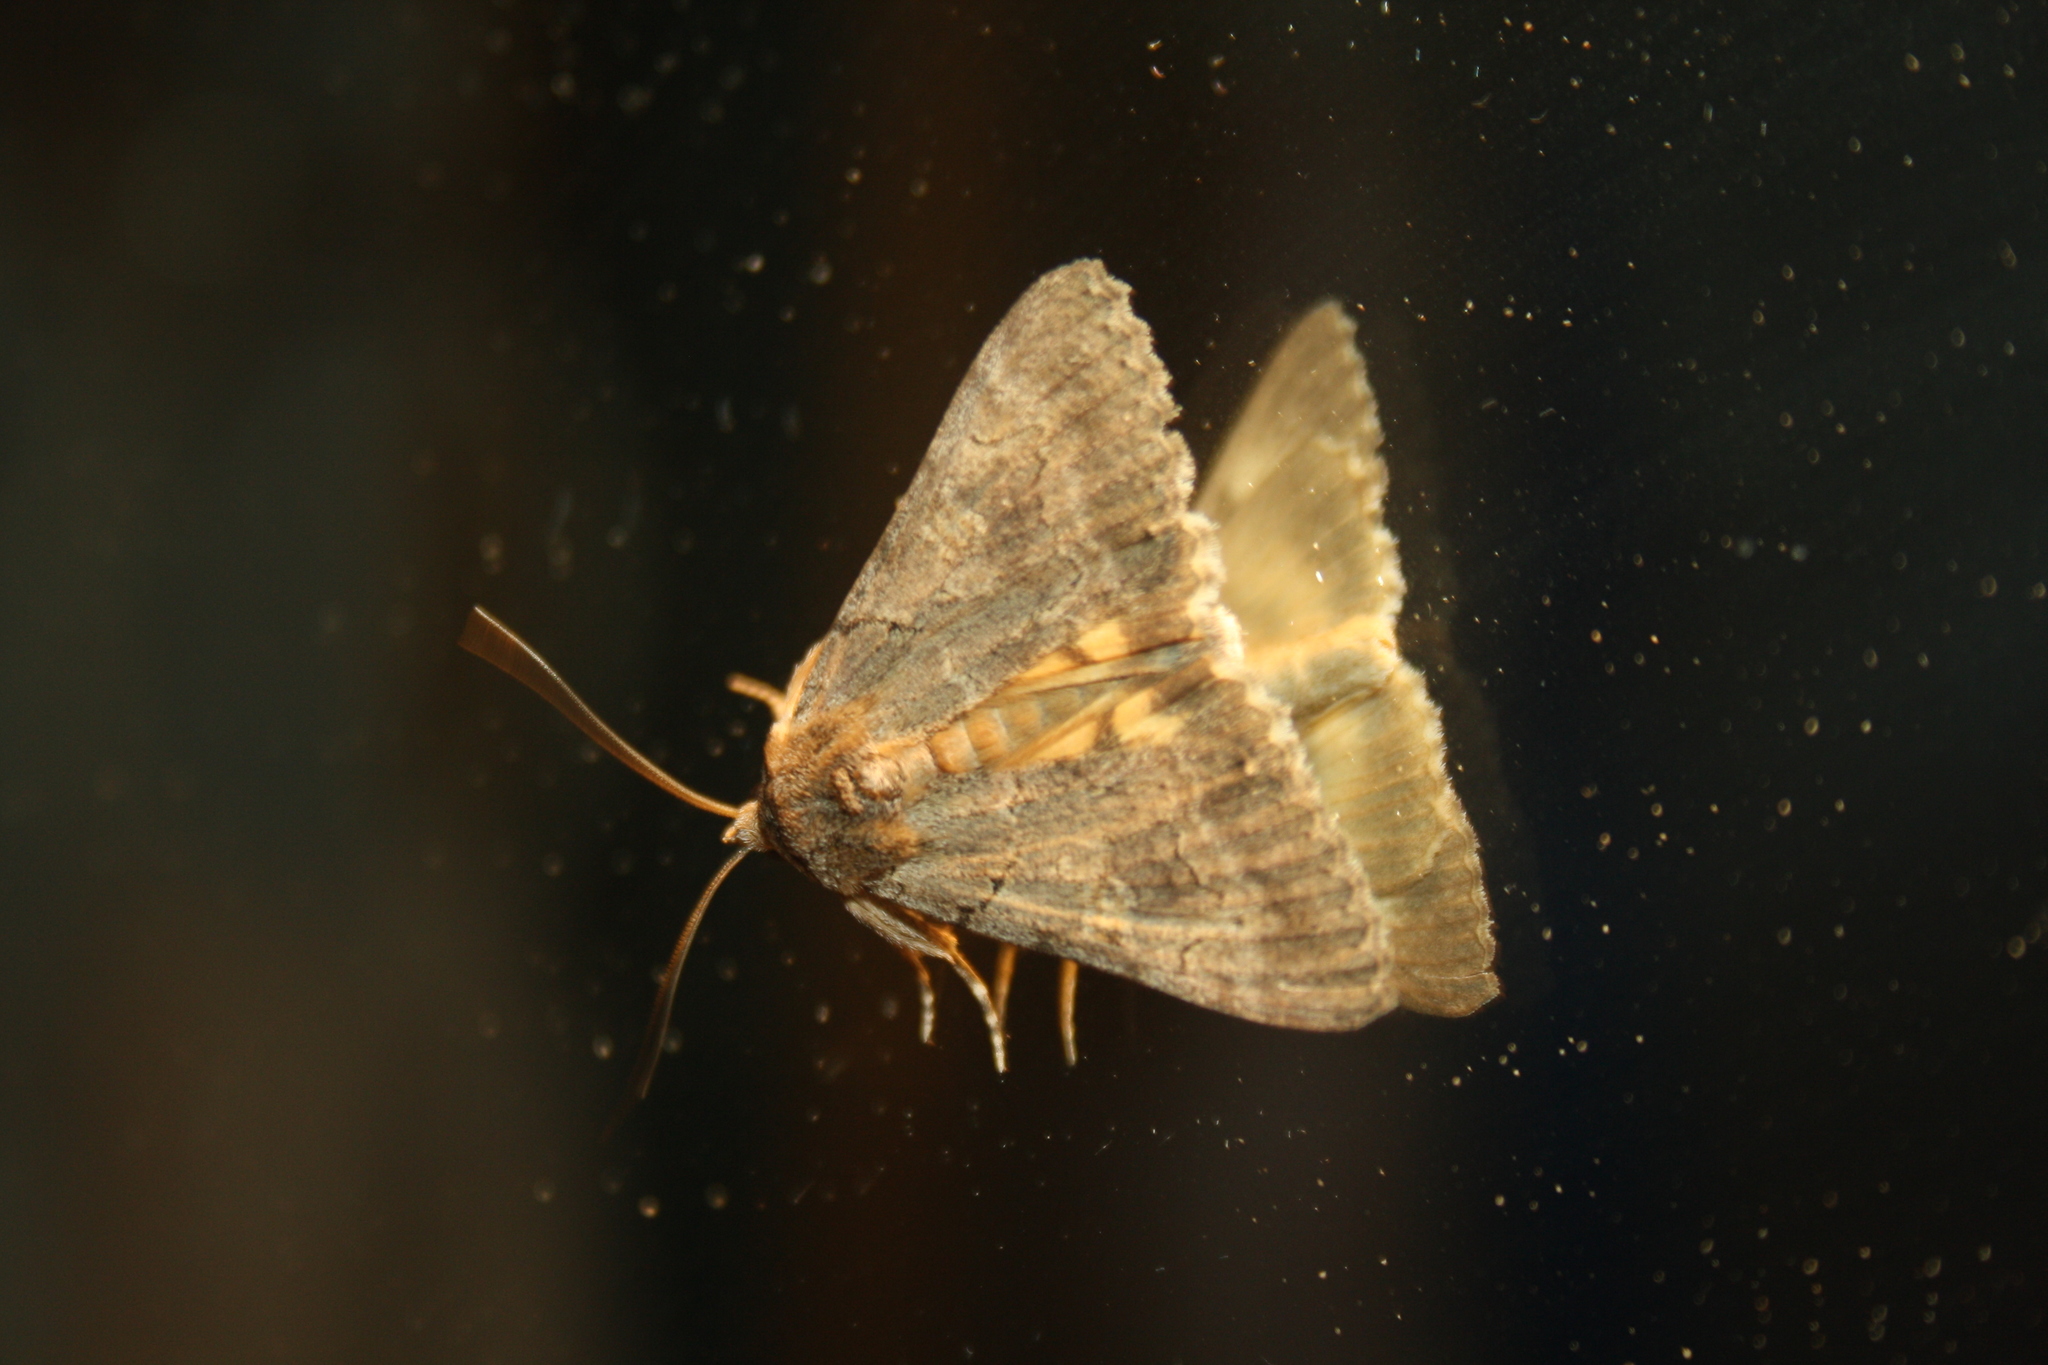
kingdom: Animalia
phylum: Arthropoda
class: Insecta
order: Lepidoptera
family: Erebidae
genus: Catocala
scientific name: Catocala eutychea
